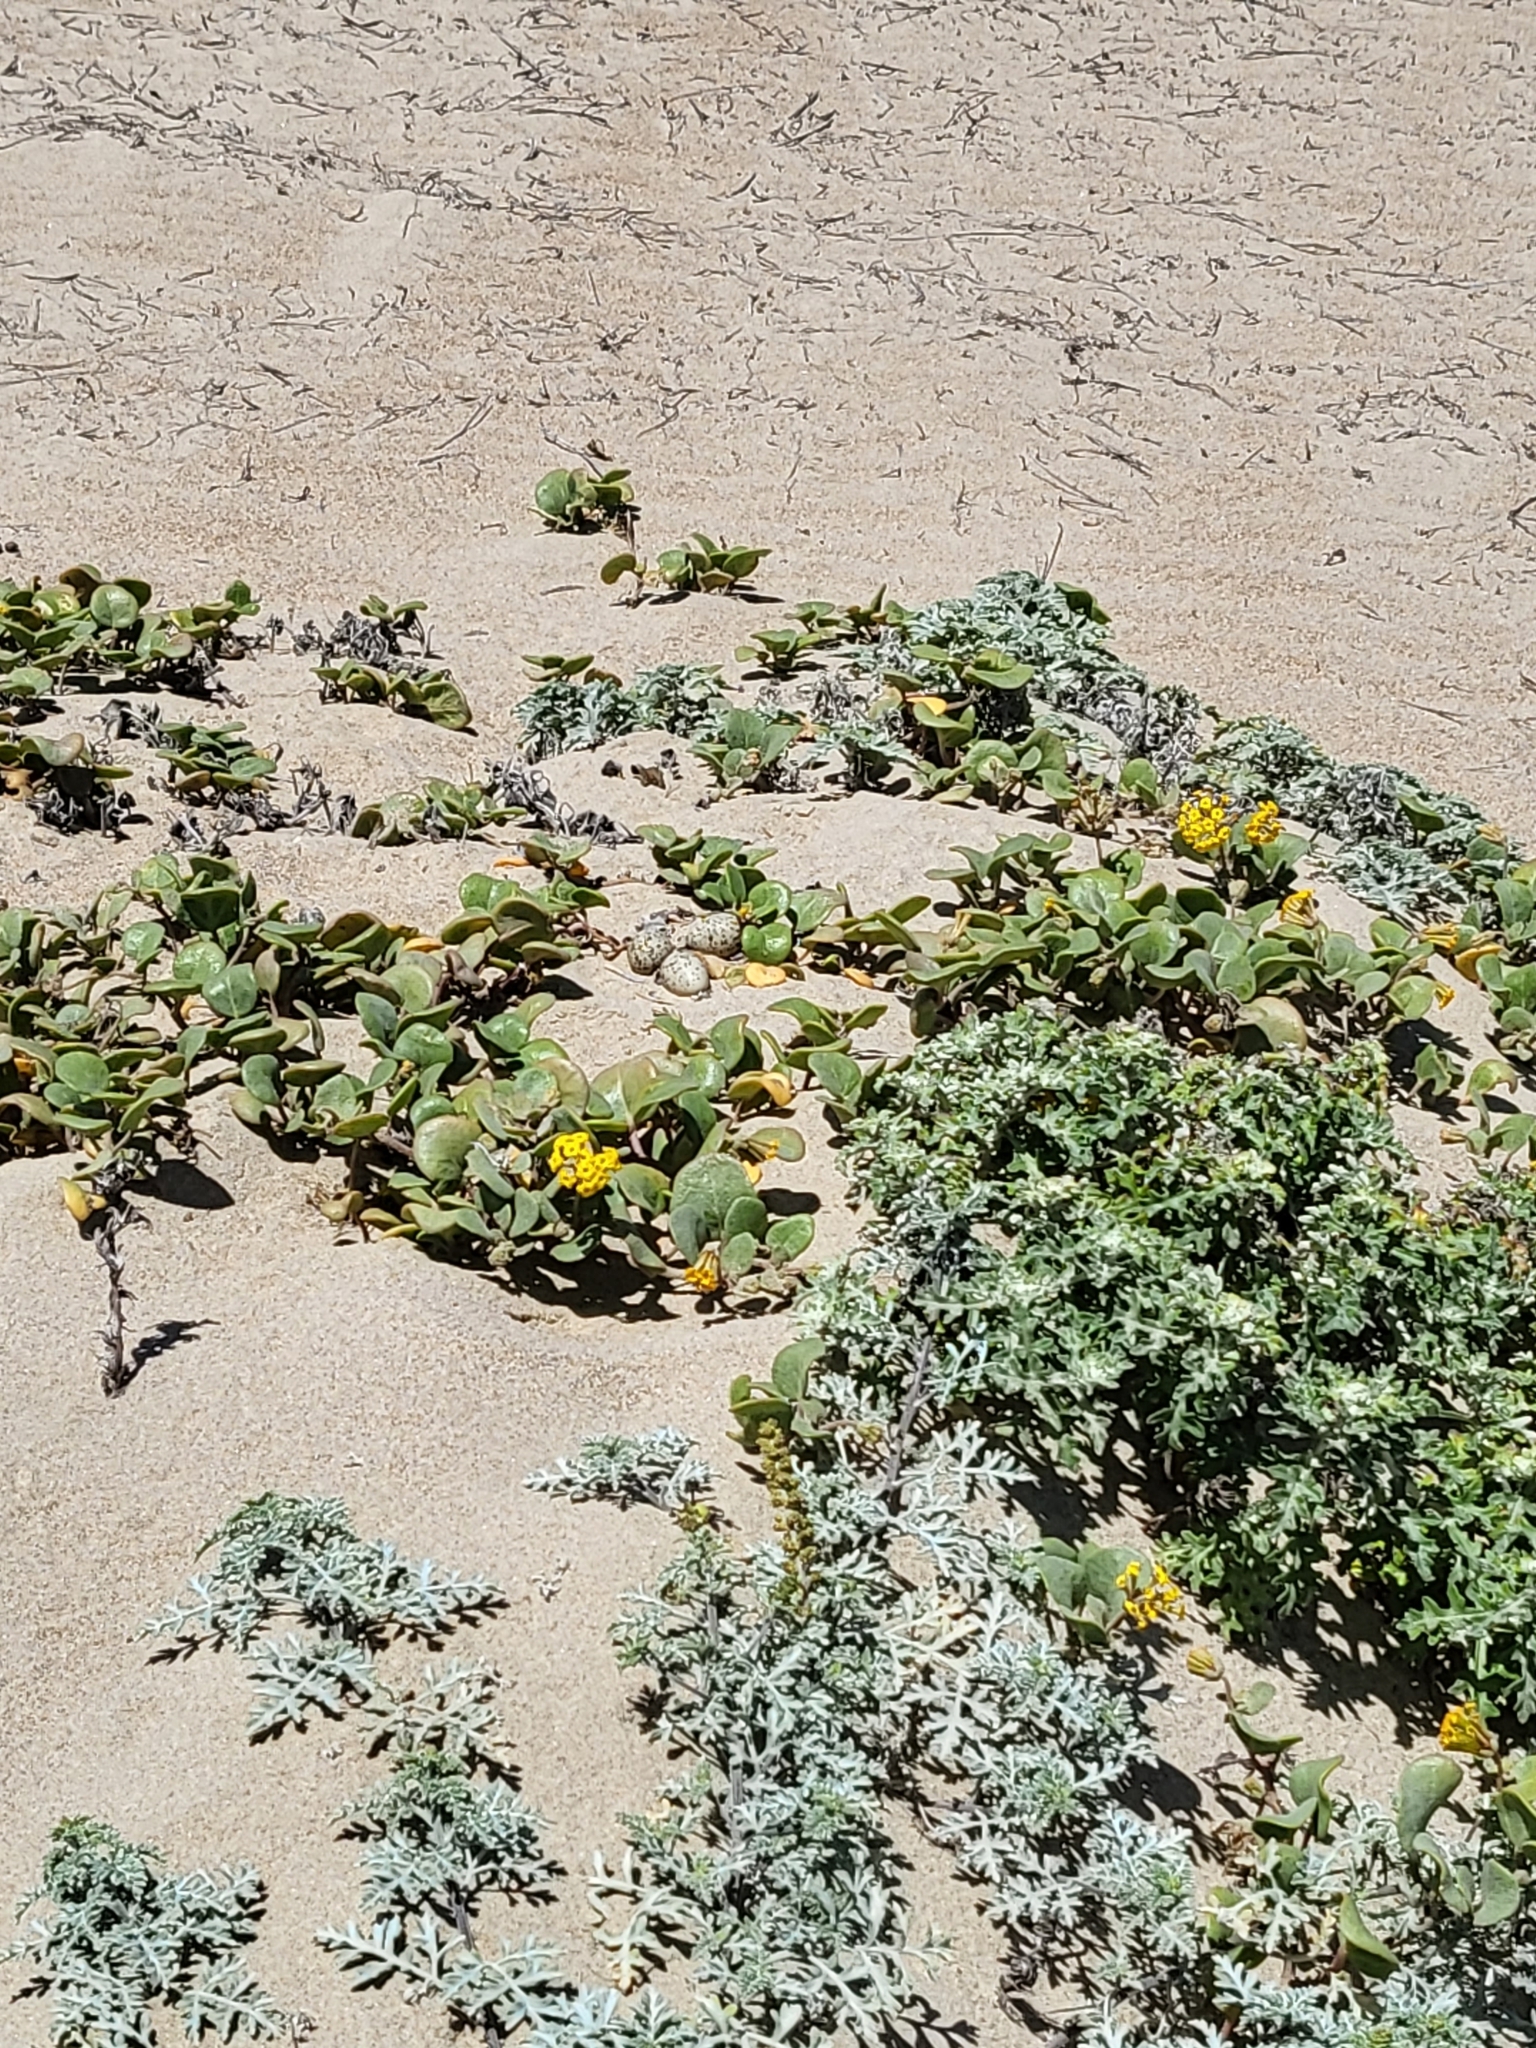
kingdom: Animalia
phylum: Chordata
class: Aves
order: Charadriiformes
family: Charadriidae
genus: Anarhynchus
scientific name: Anarhynchus
